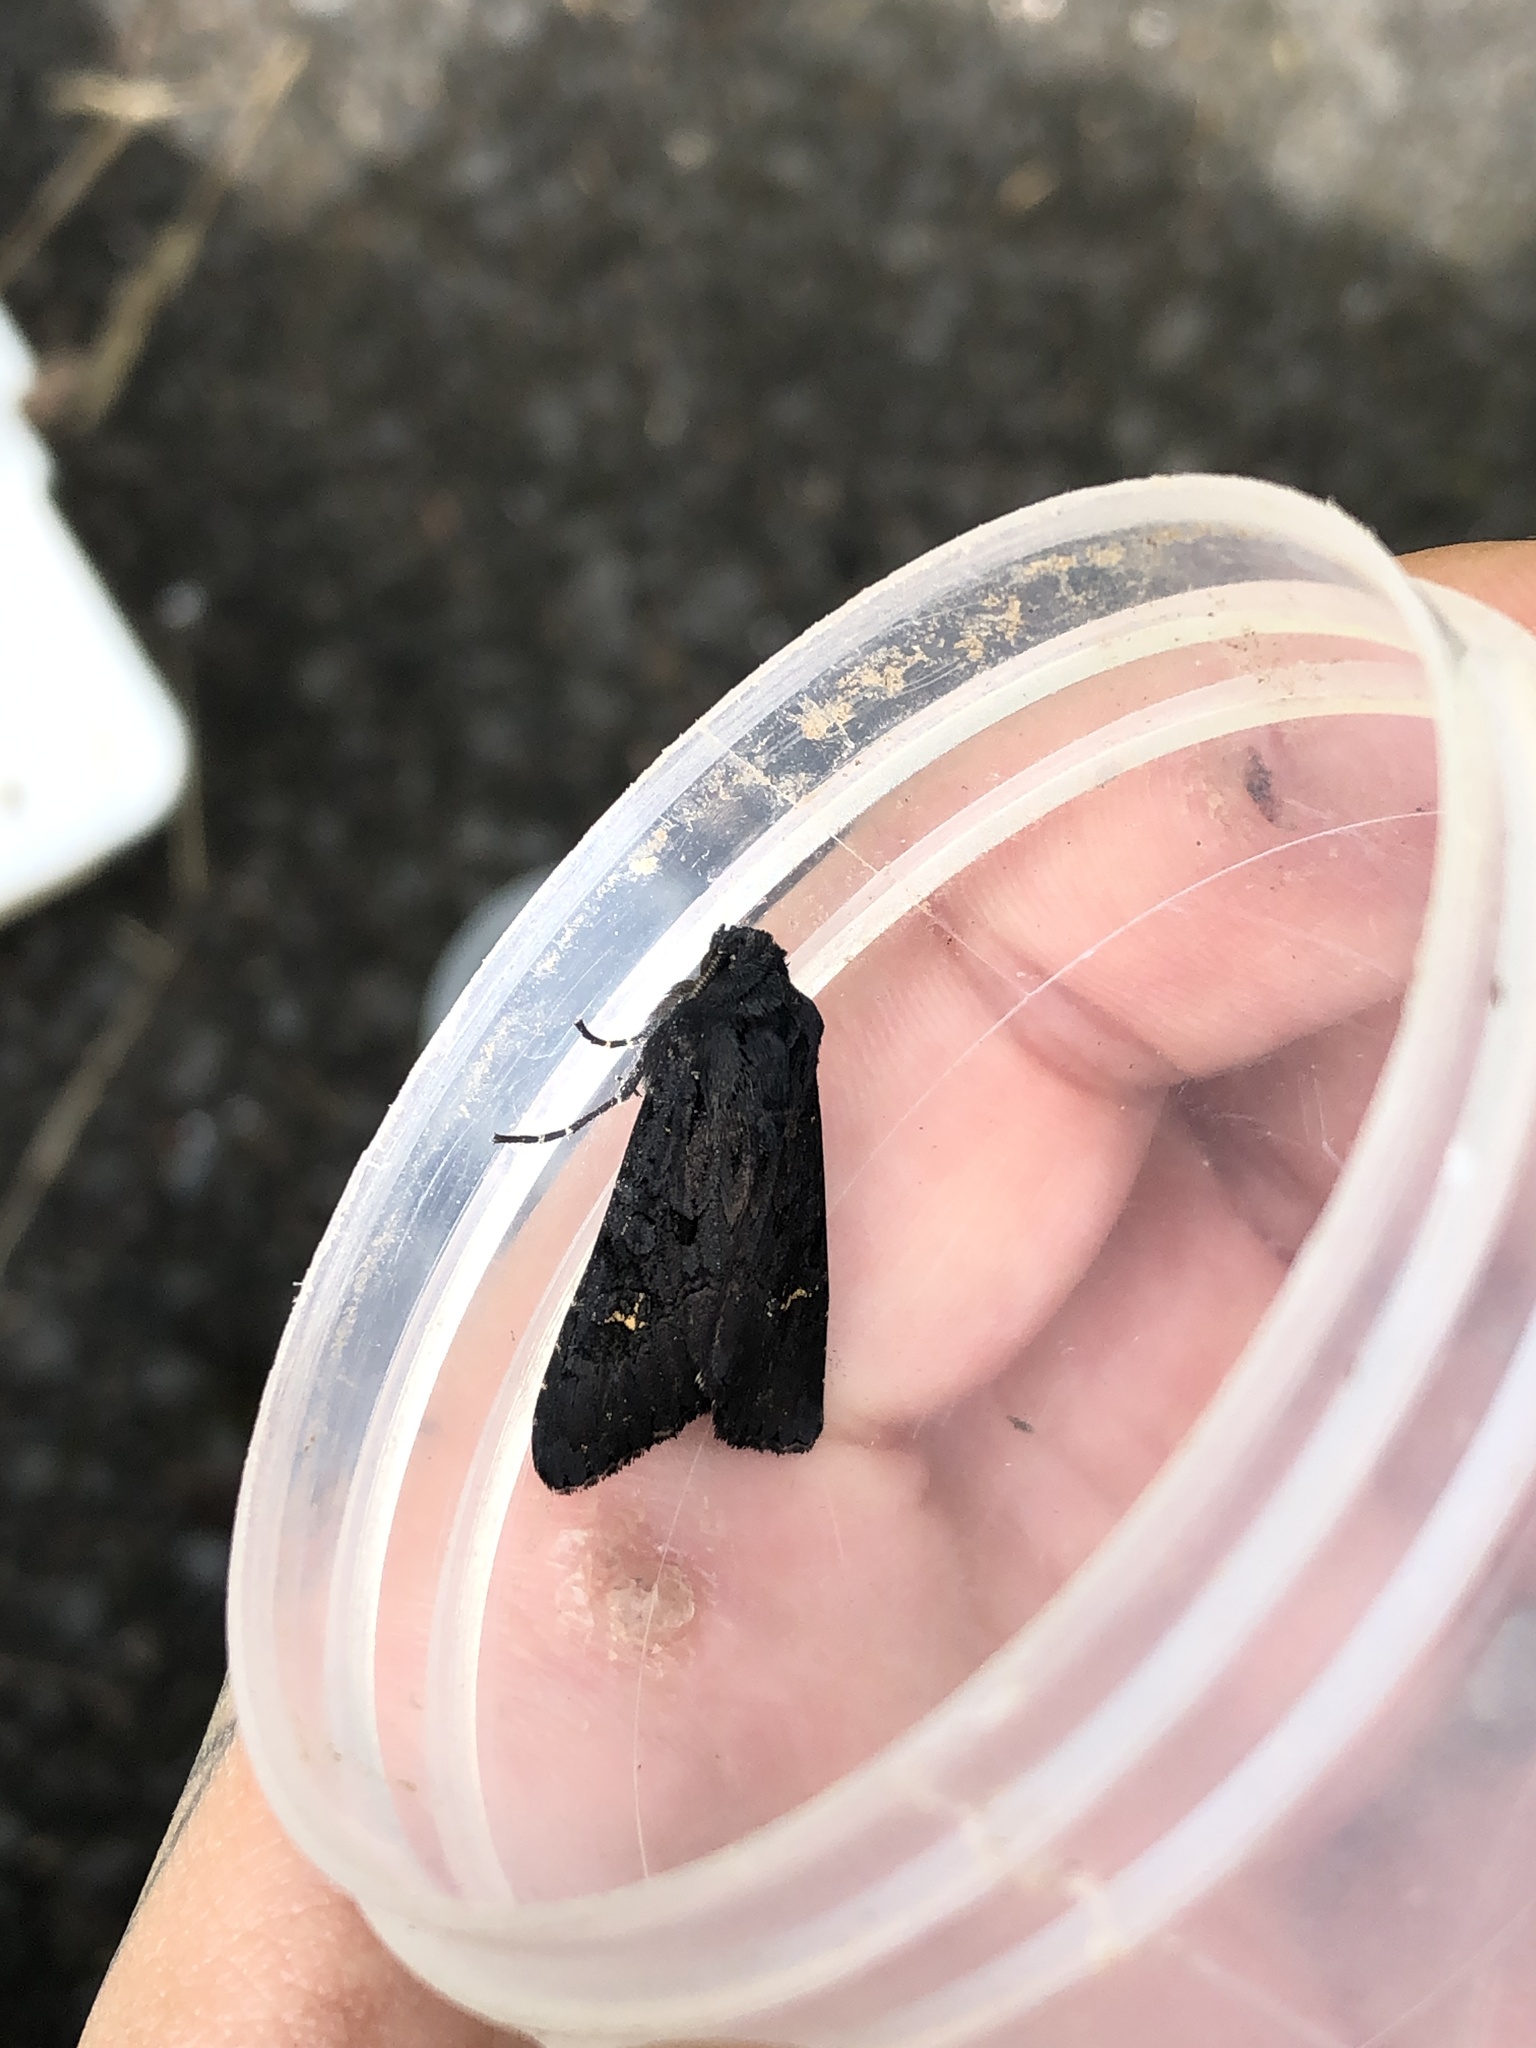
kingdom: Animalia
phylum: Arthropoda
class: Insecta
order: Lepidoptera
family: Noctuidae
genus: Aporophyla
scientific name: Aporophyla nigra
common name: Black rustic
